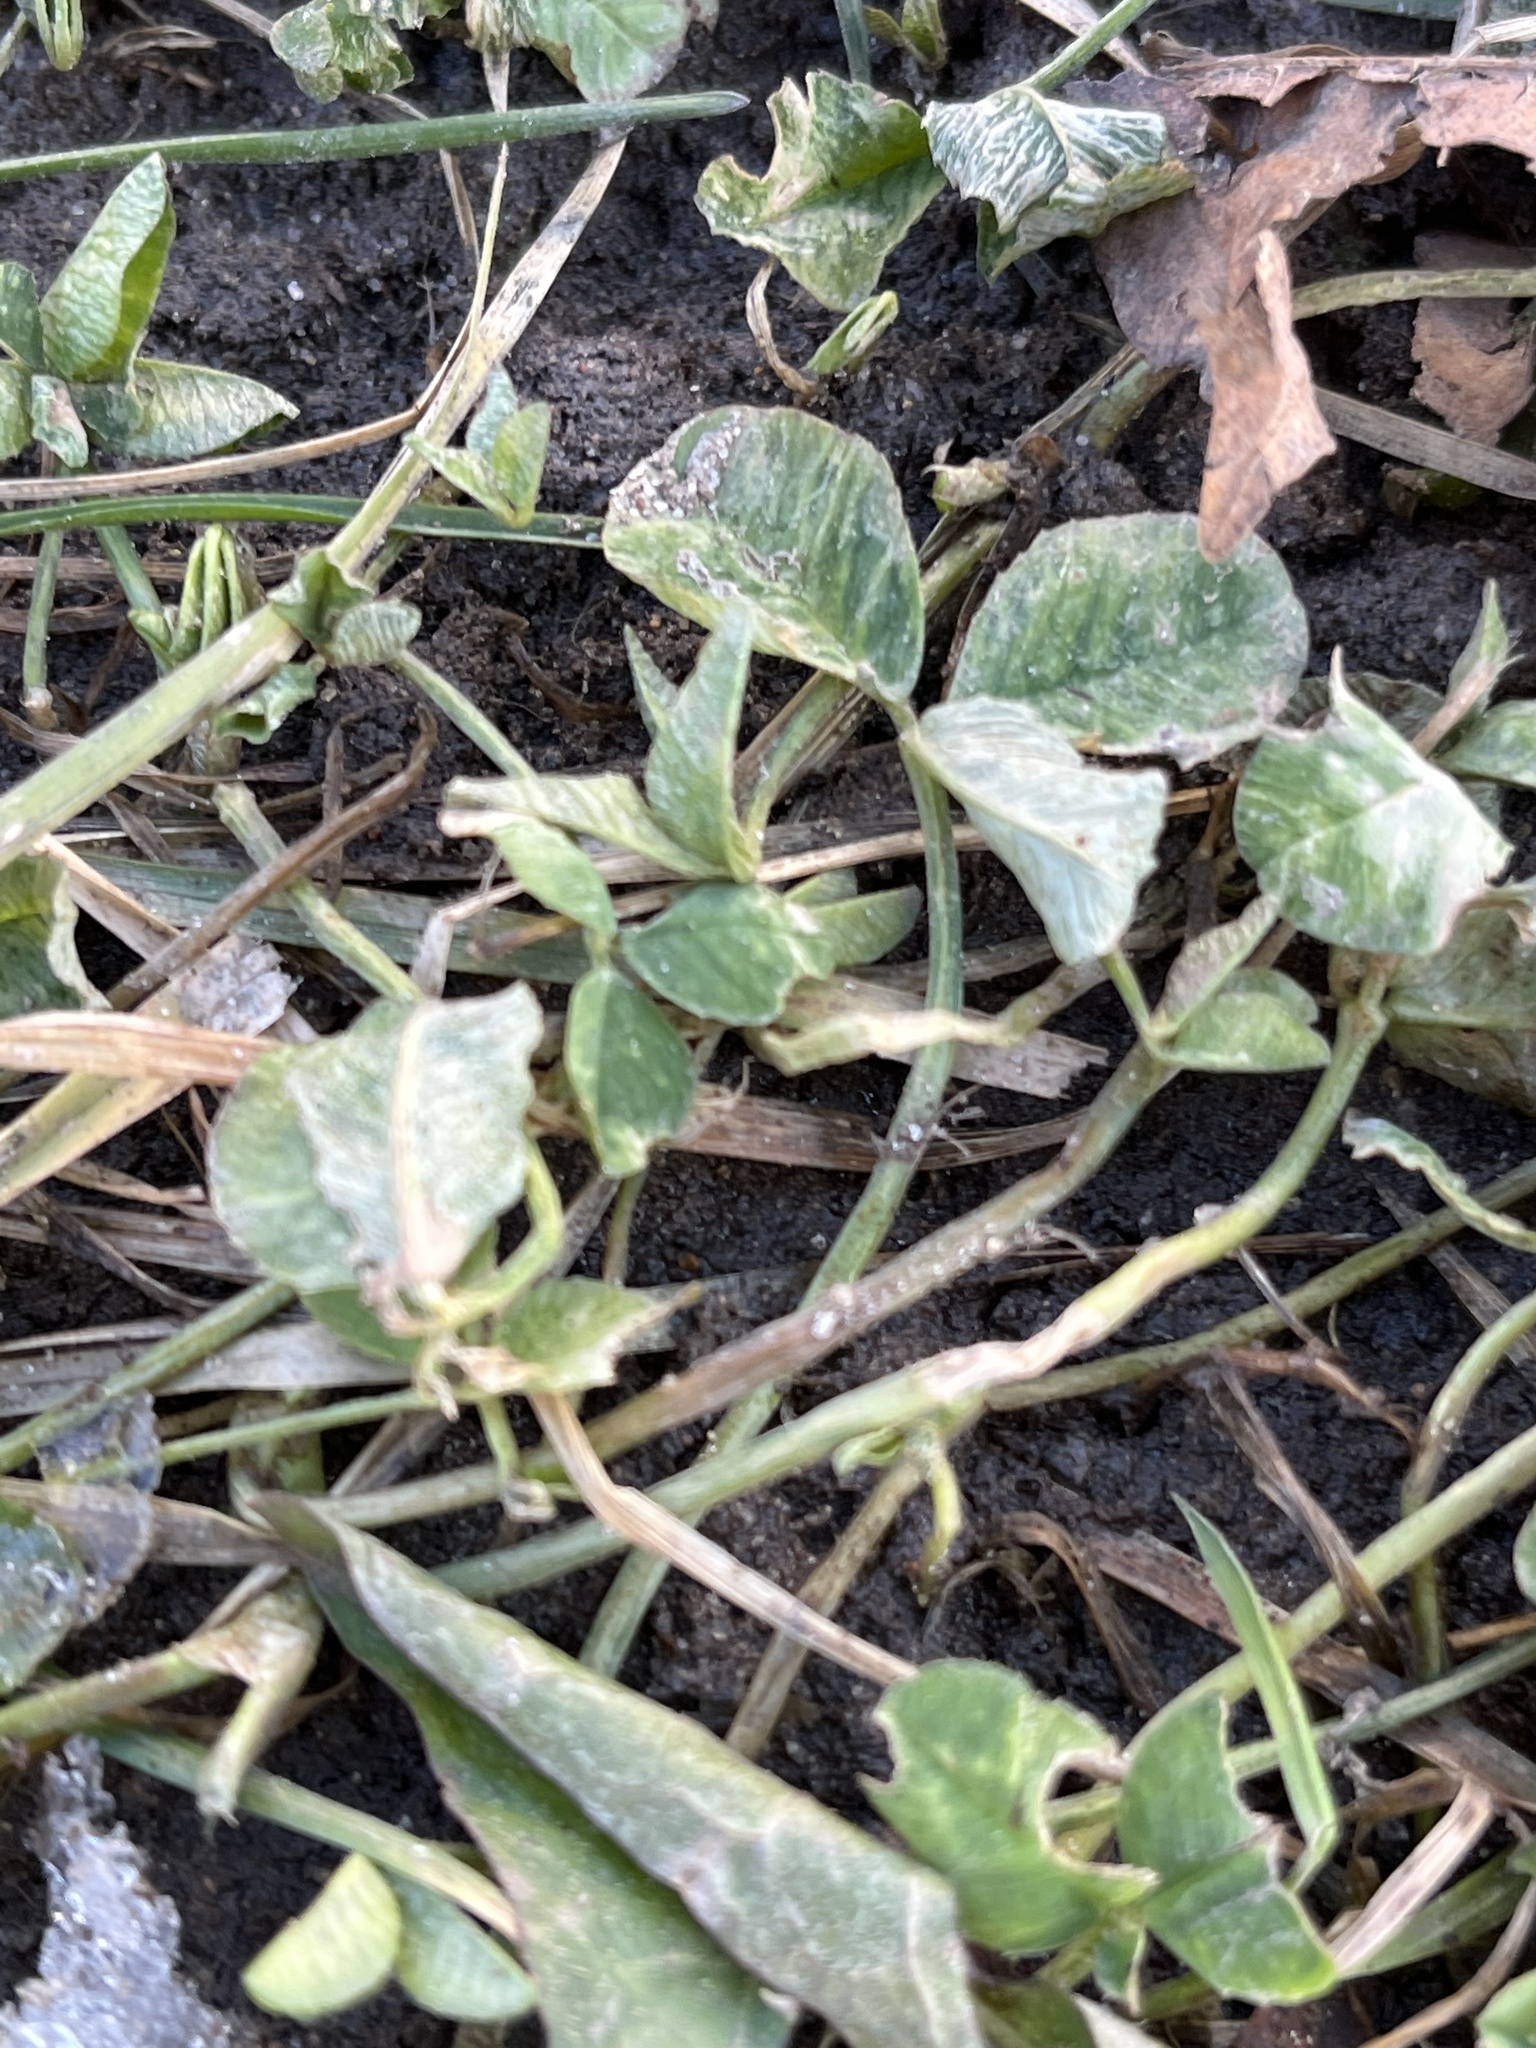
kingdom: Plantae
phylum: Tracheophyta
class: Magnoliopsida
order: Fabales
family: Fabaceae
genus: Trifolium
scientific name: Trifolium repens
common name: White clover
